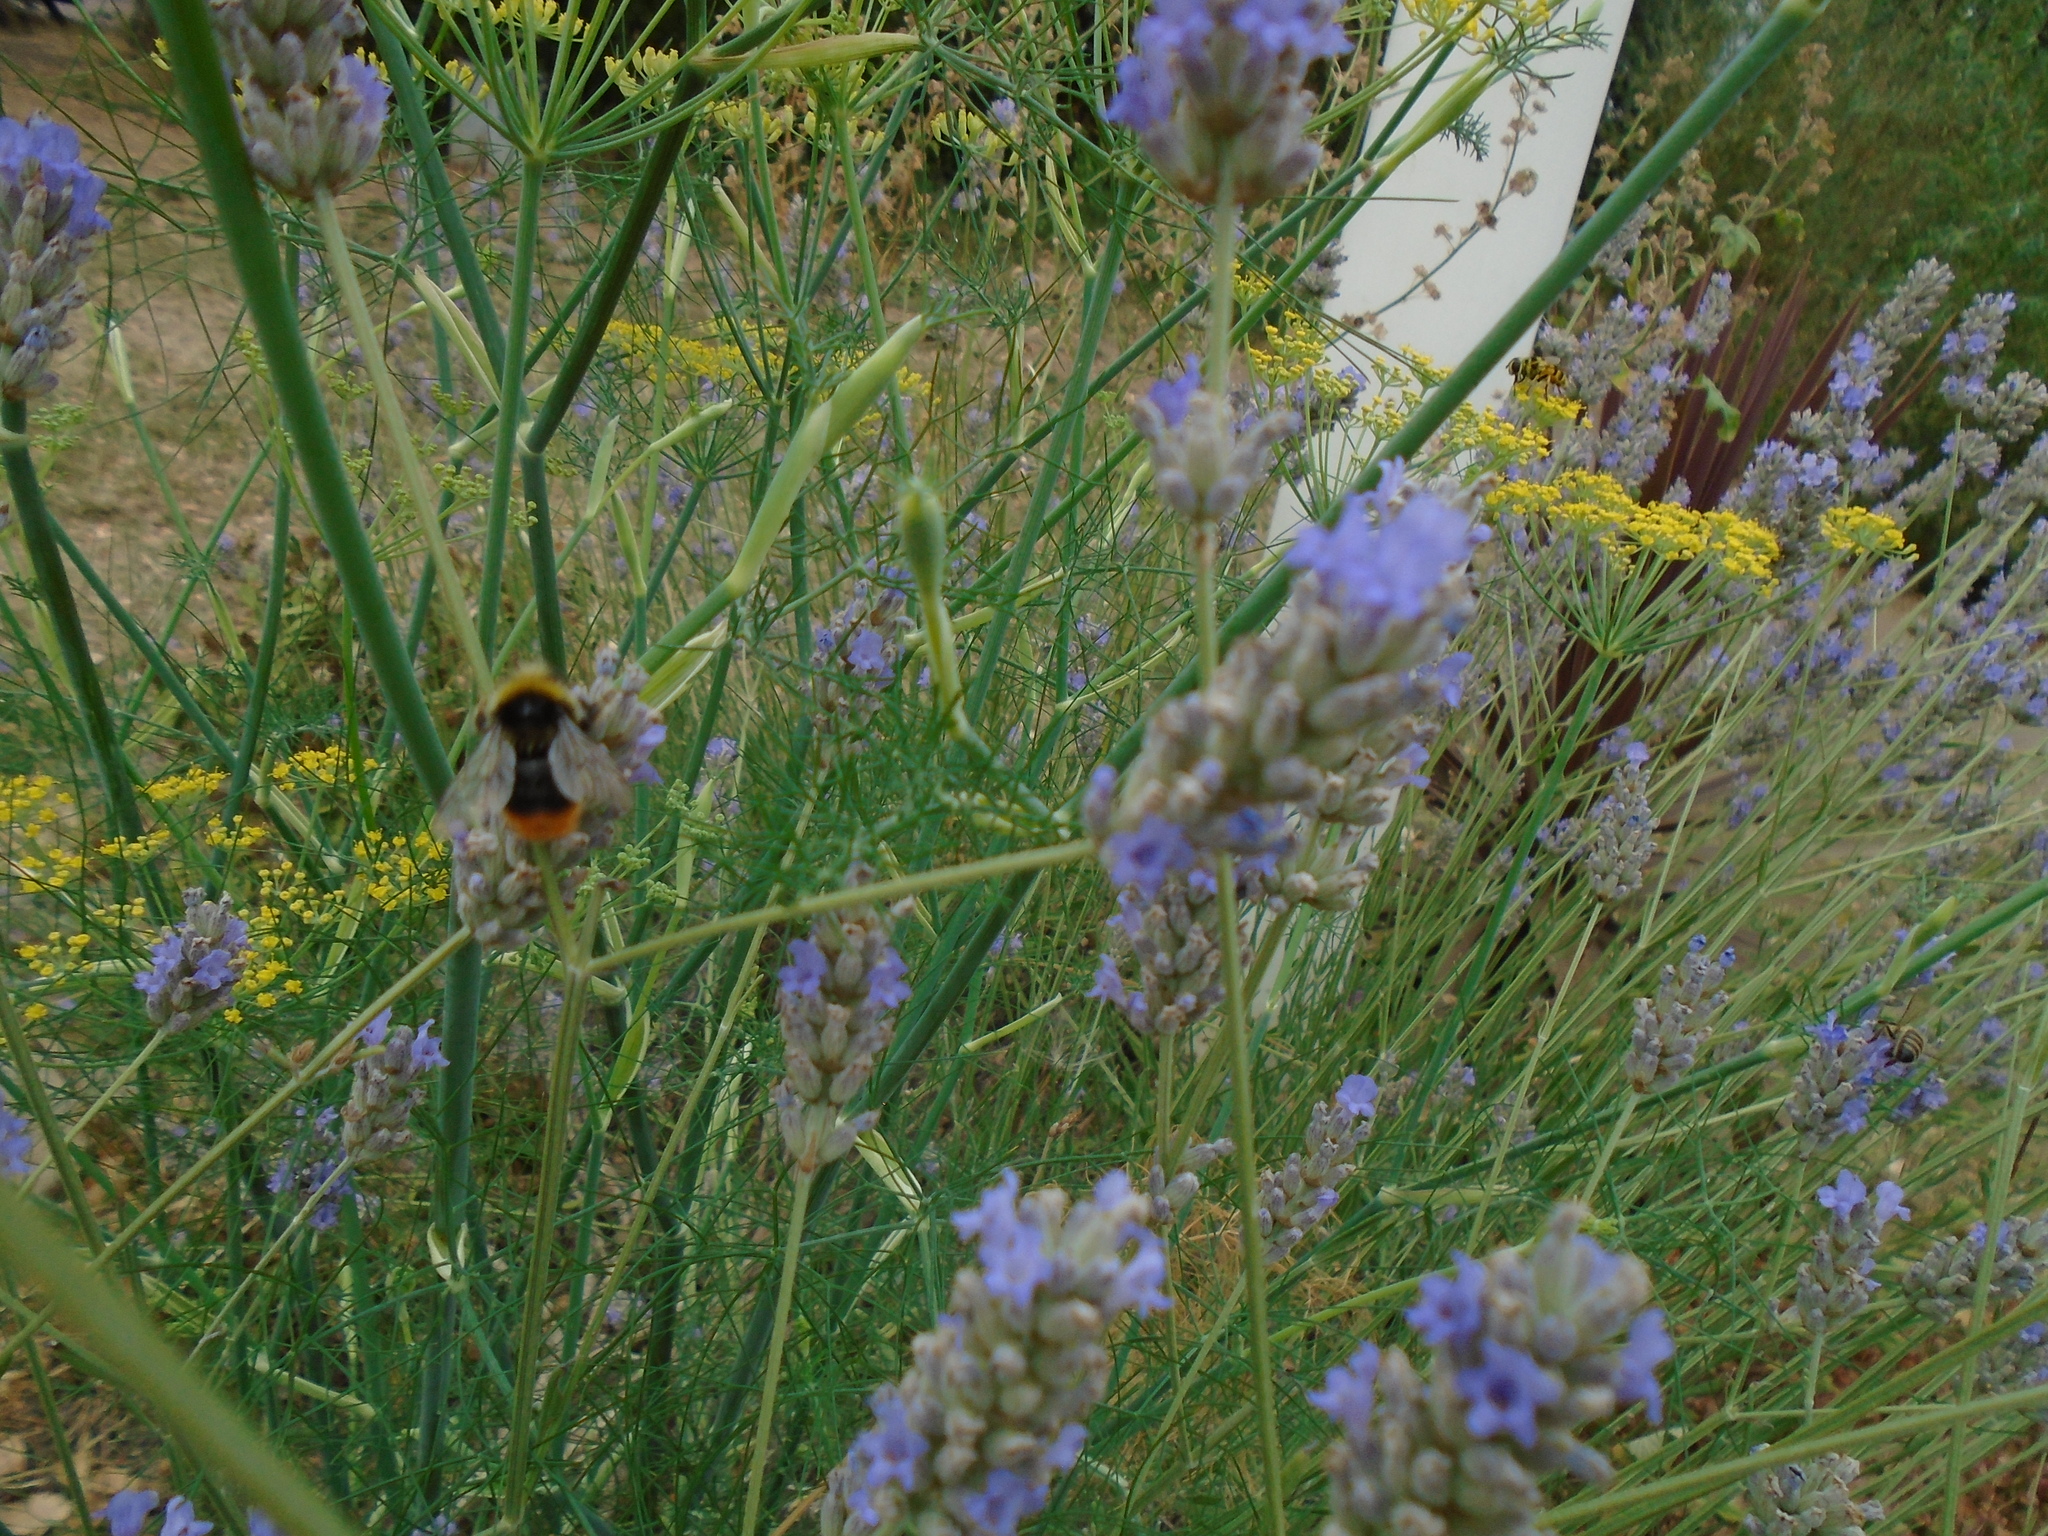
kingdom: Animalia
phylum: Arthropoda
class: Insecta
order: Hymenoptera
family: Apidae
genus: Bombus
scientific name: Bombus lapidarius
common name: Large red-tailed humble-bee
